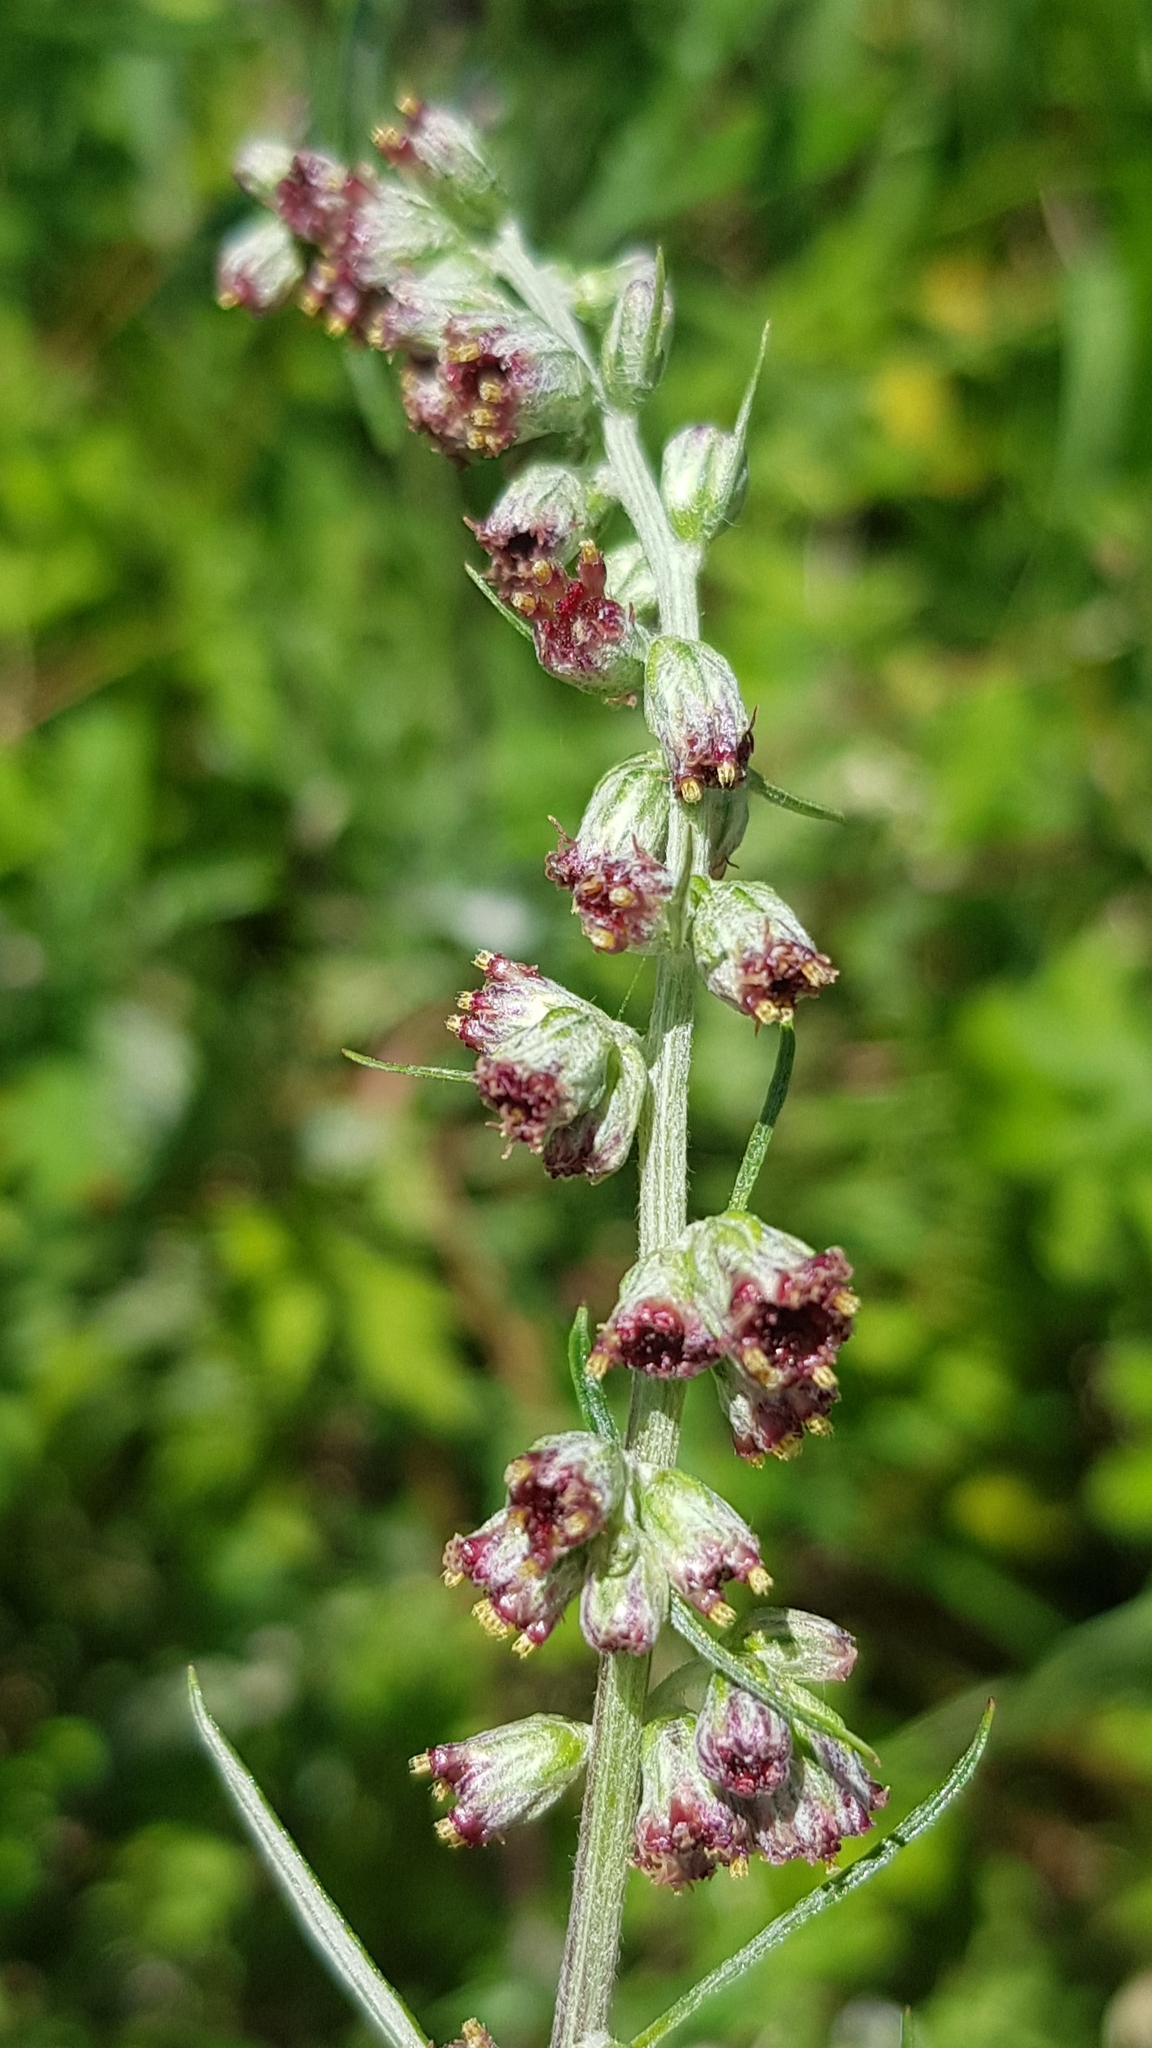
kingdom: Plantae
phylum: Tracheophyta
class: Magnoliopsida
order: Asterales
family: Asteraceae
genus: Artemisia
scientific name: Artemisia vulgaris
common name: Mugwort
